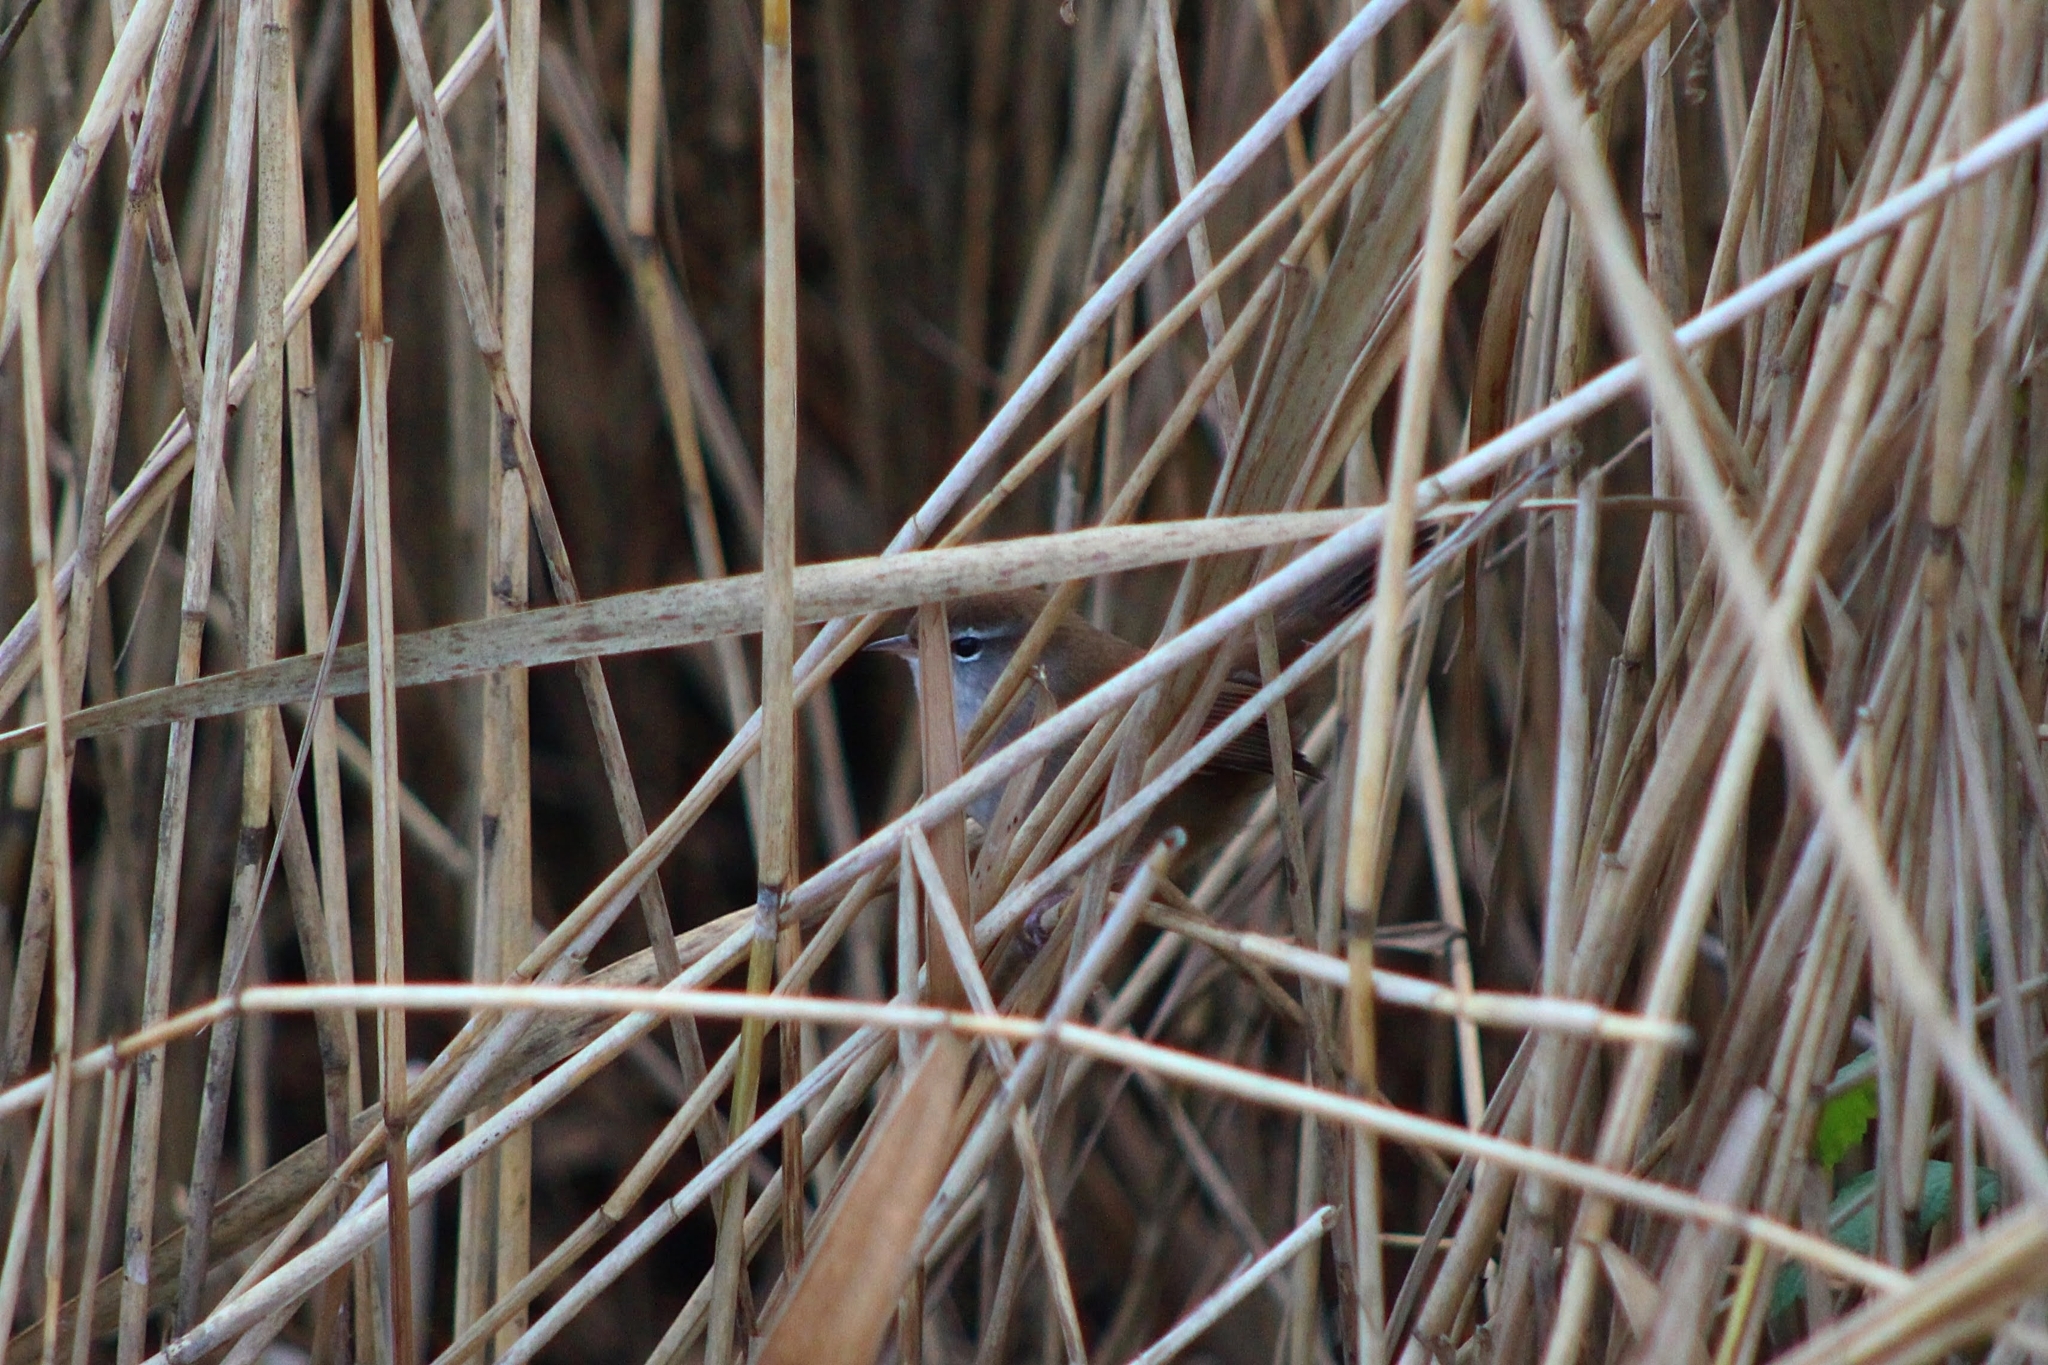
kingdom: Animalia
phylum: Chordata
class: Aves
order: Passeriformes
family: Cettiidae
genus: Cettia
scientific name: Cettia cetti
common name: Cetti's warbler
